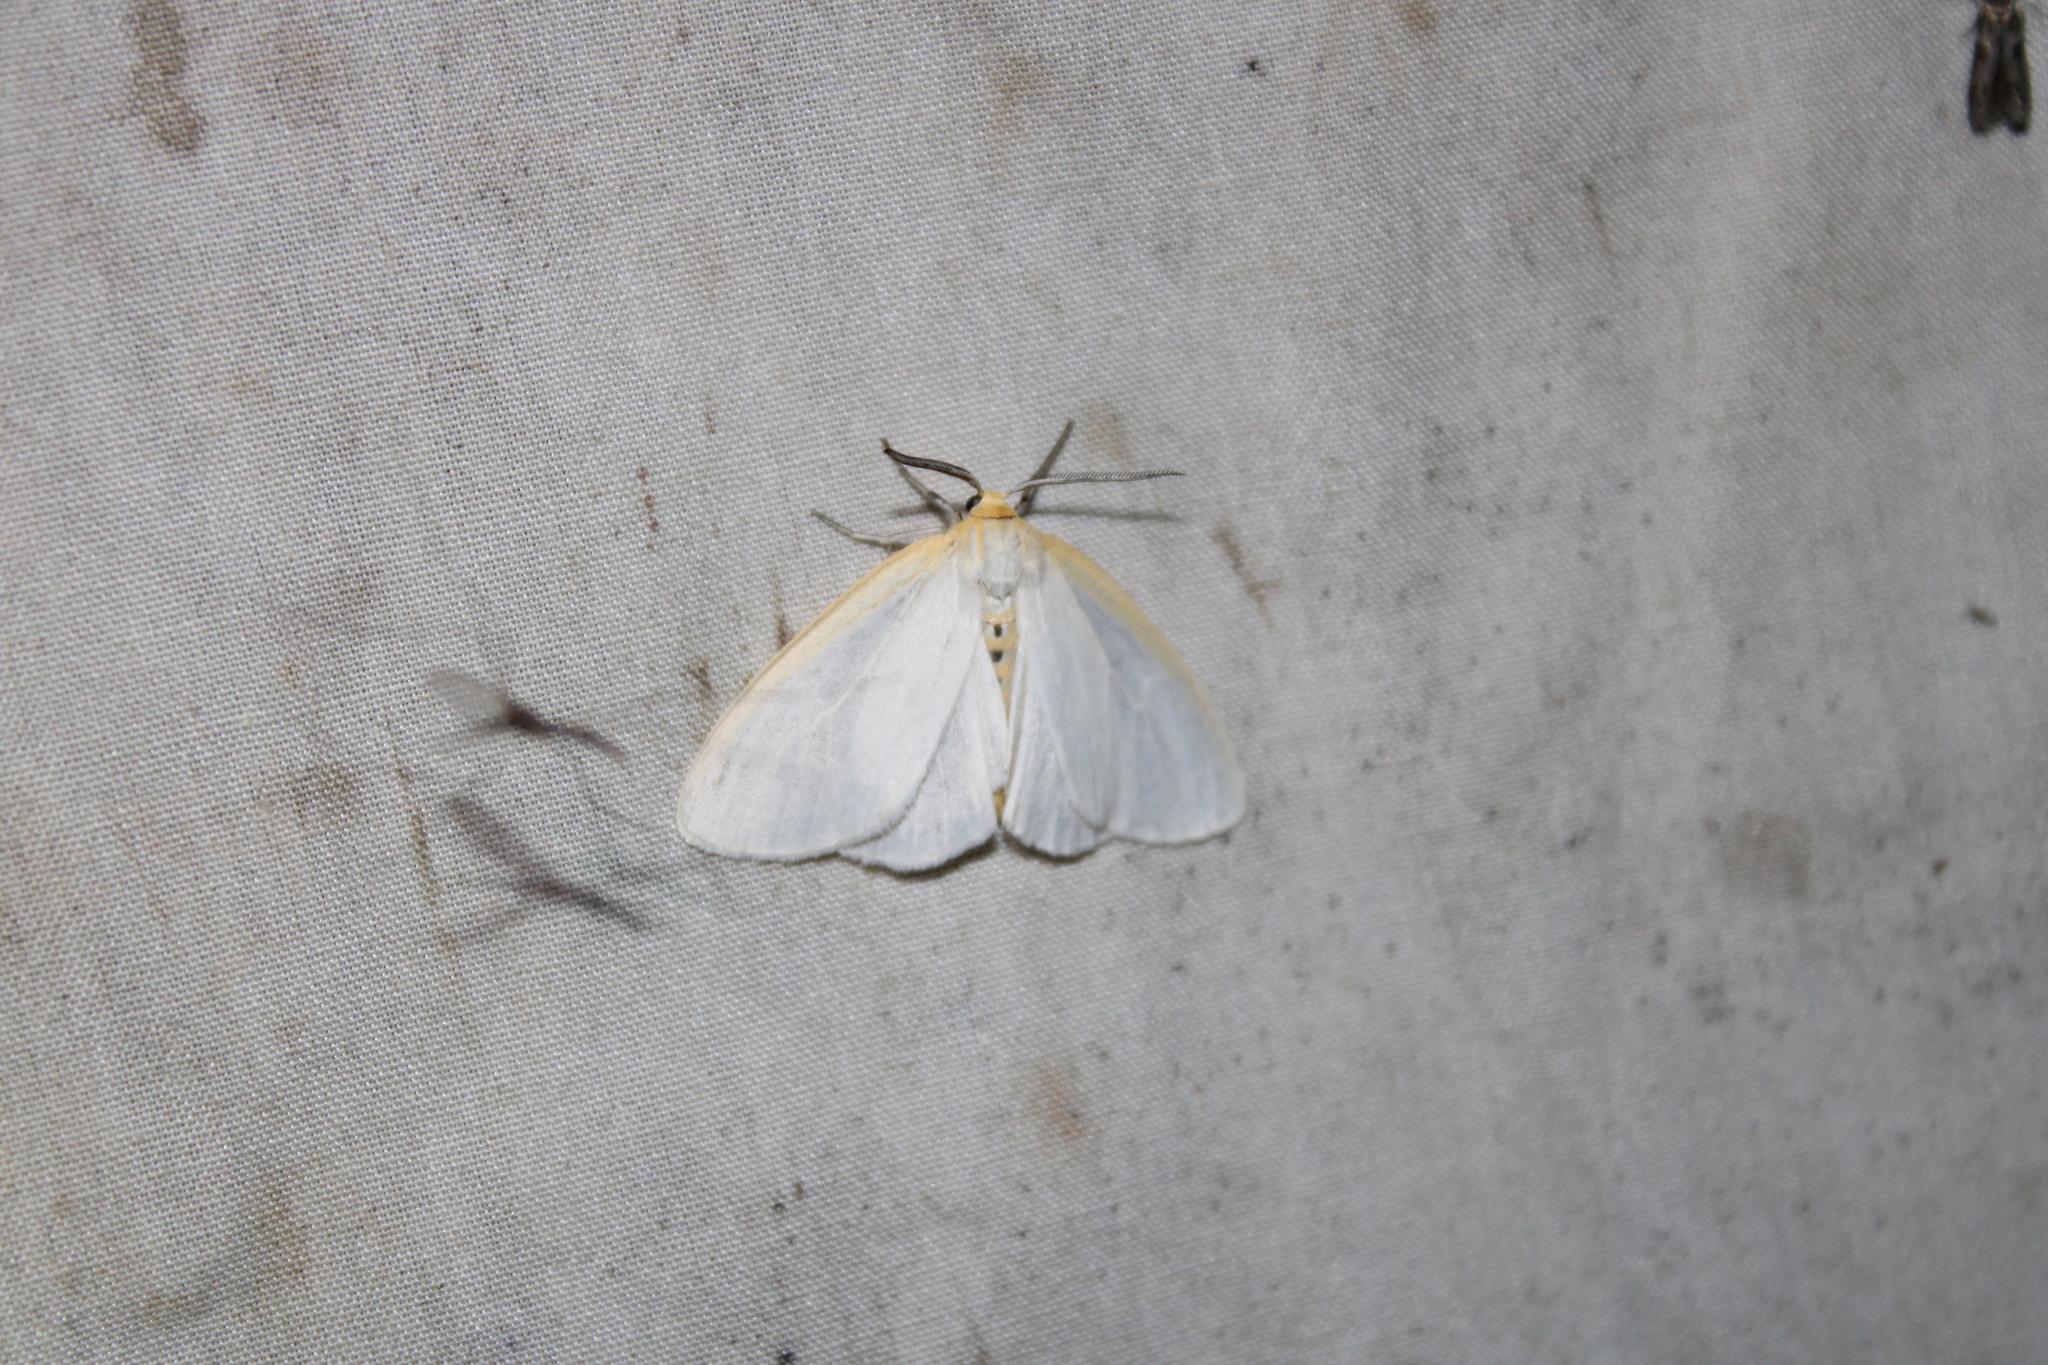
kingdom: Animalia
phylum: Arthropoda
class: Insecta
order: Lepidoptera
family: Erebidae
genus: Cycnia
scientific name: Cycnia tenera
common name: Delicate cycnia moth
